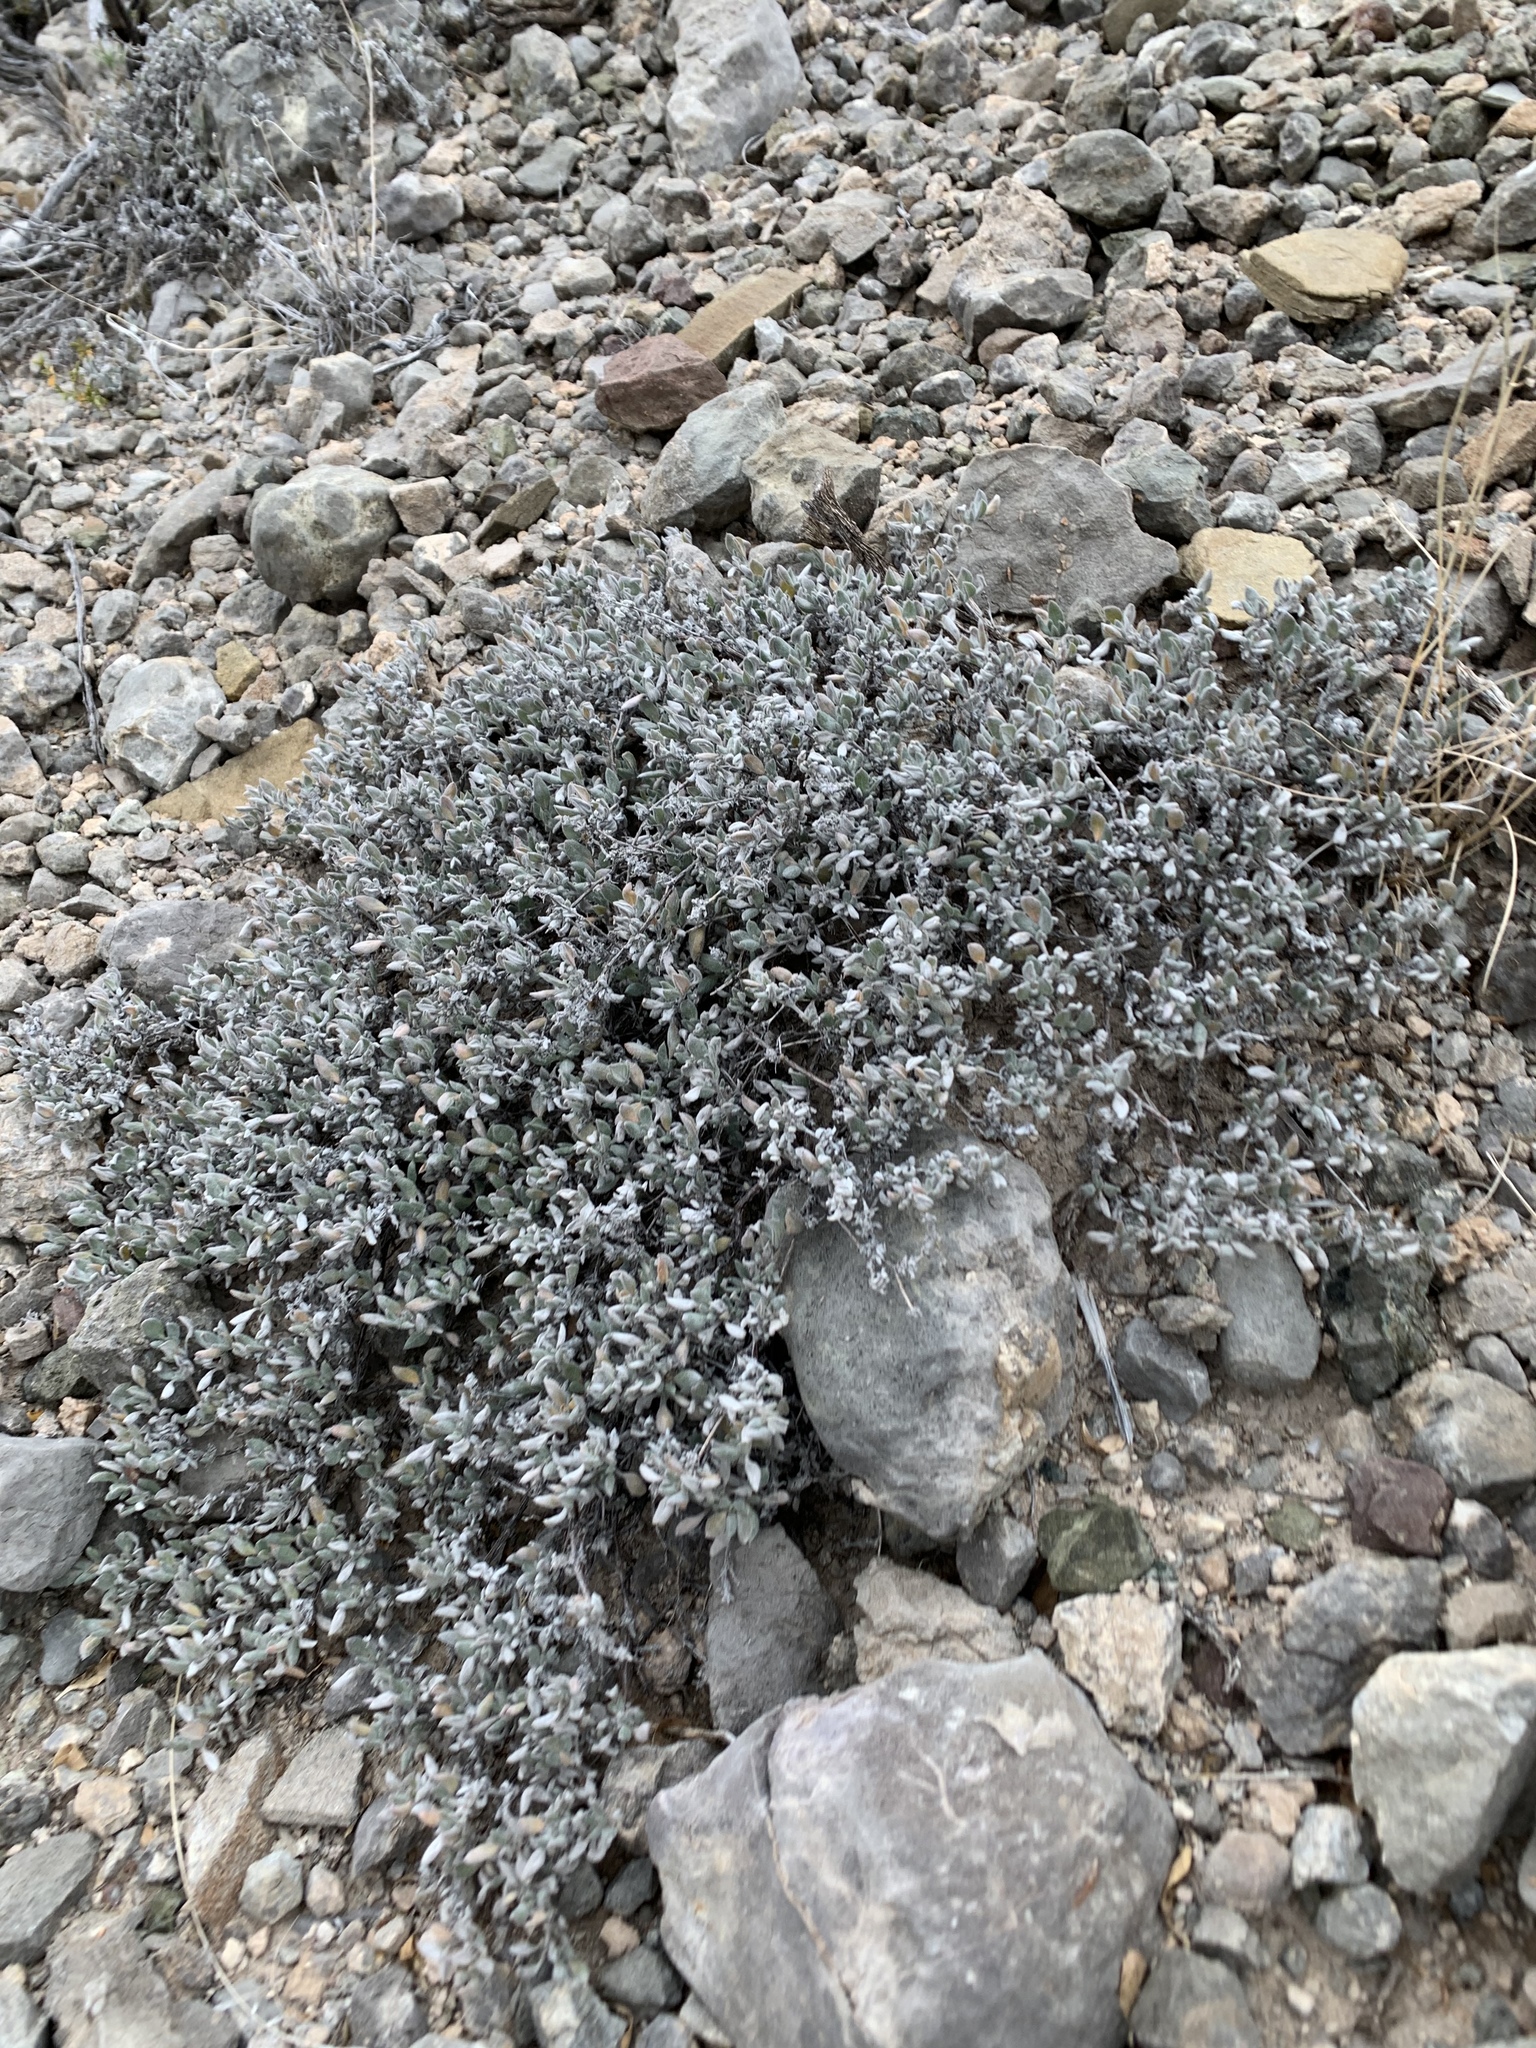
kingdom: Plantae
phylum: Tracheophyta
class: Magnoliopsida
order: Boraginales
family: Ehretiaceae
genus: Tiquilia
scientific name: Tiquilia canescens
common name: Hairy tiquilia
